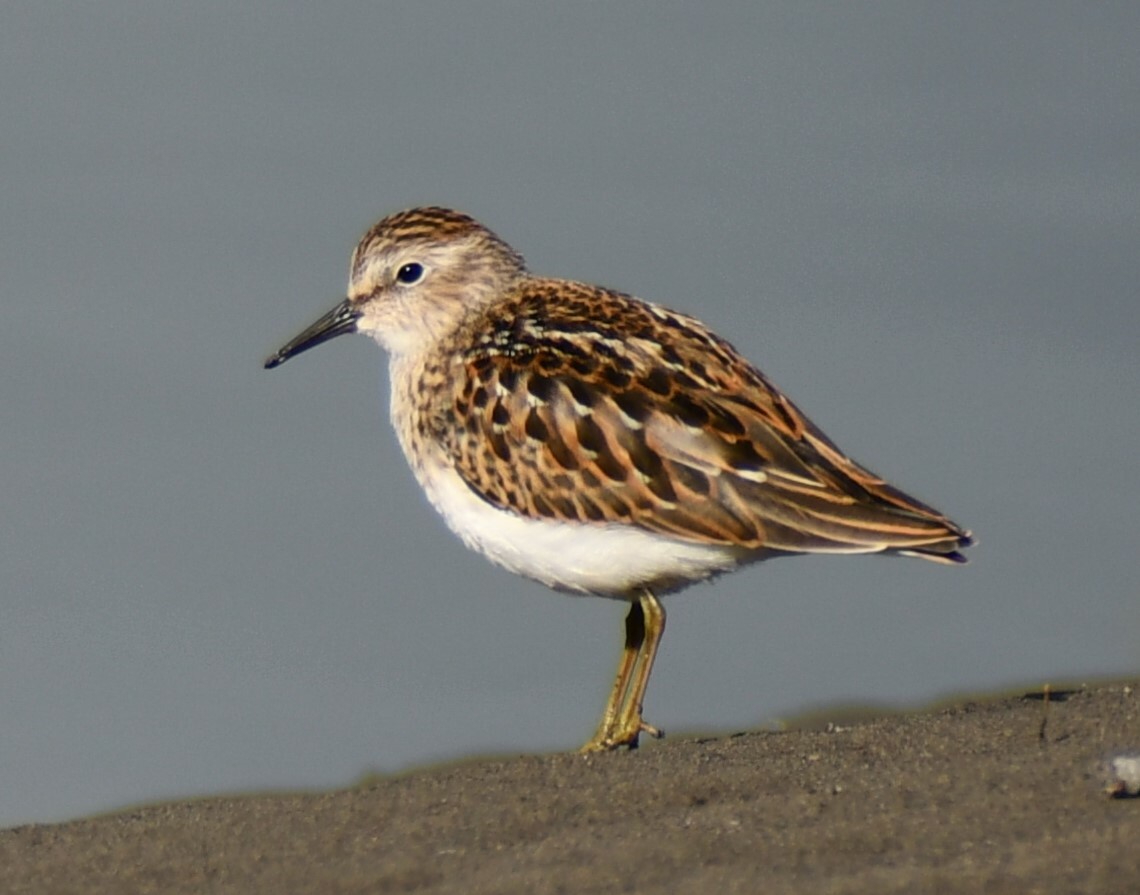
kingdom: Animalia
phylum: Chordata
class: Aves
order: Charadriiformes
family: Scolopacidae
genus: Calidris
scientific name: Calidris minutilla
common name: Least sandpiper
